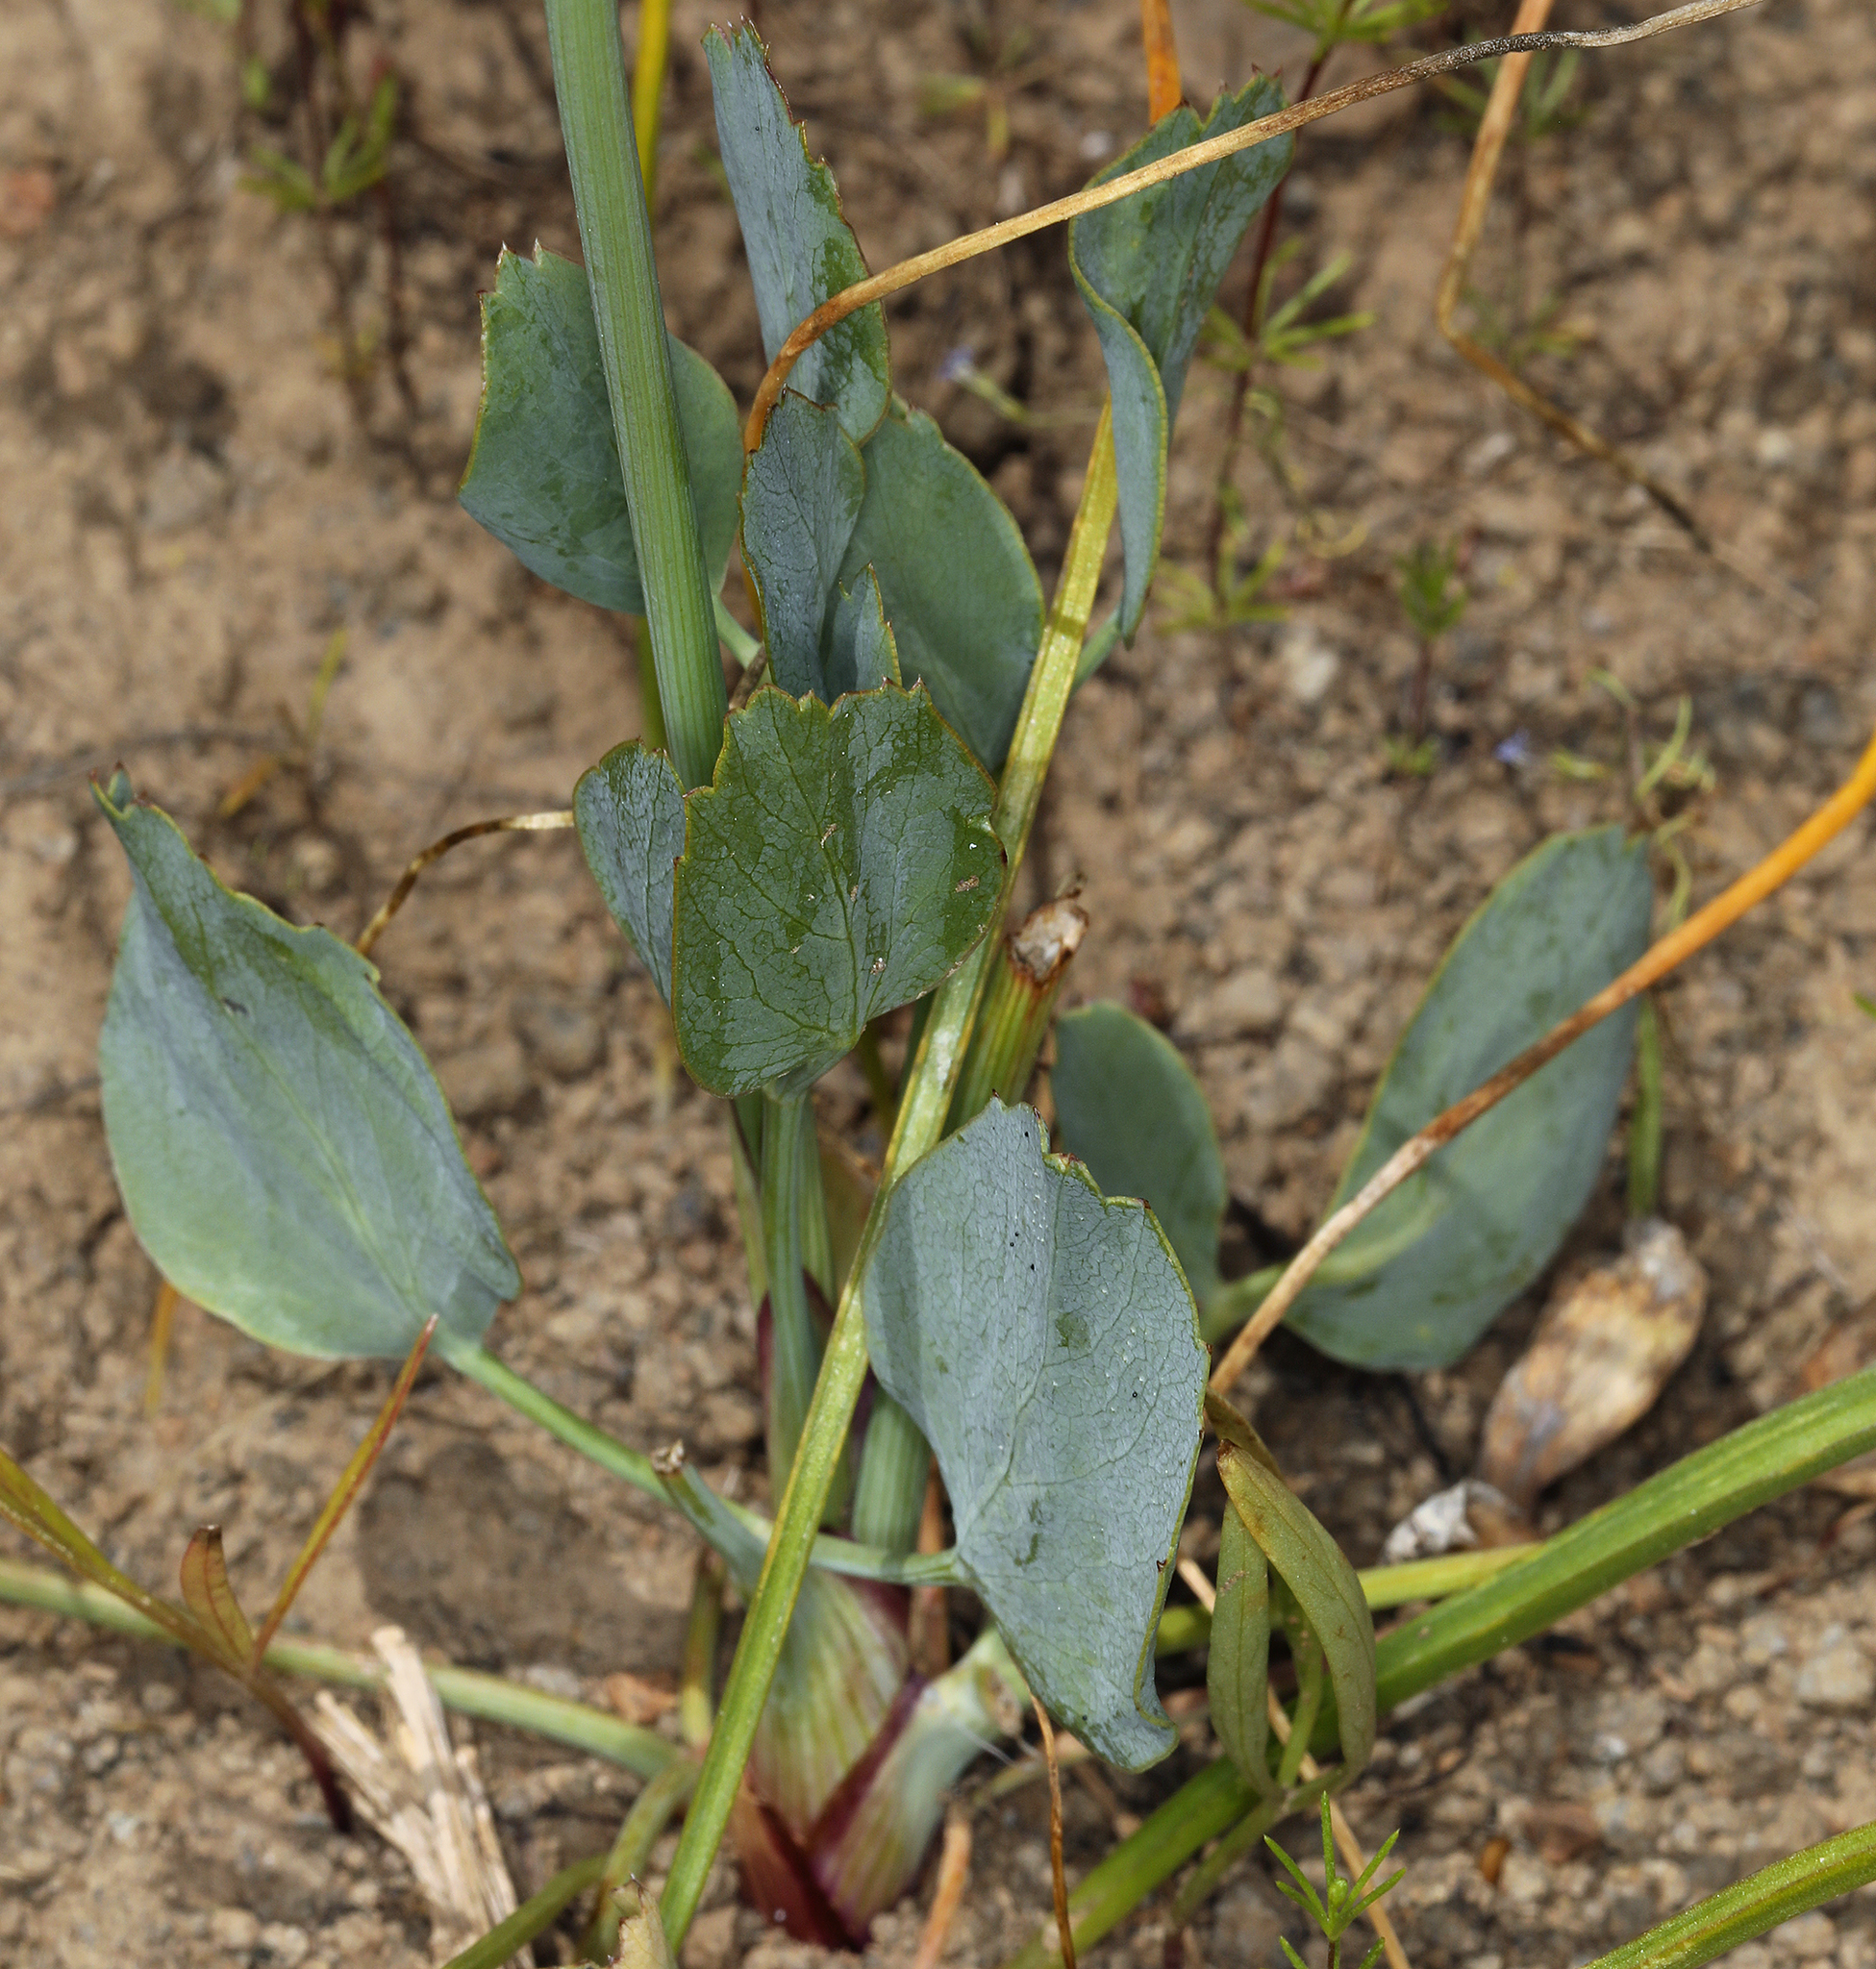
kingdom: Plantae
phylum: Tracheophyta
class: Magnoliopsida
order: Apiales
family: Apiaceae
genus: Lomatium
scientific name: Lomatium nudicaule
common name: Pestle lomatium
